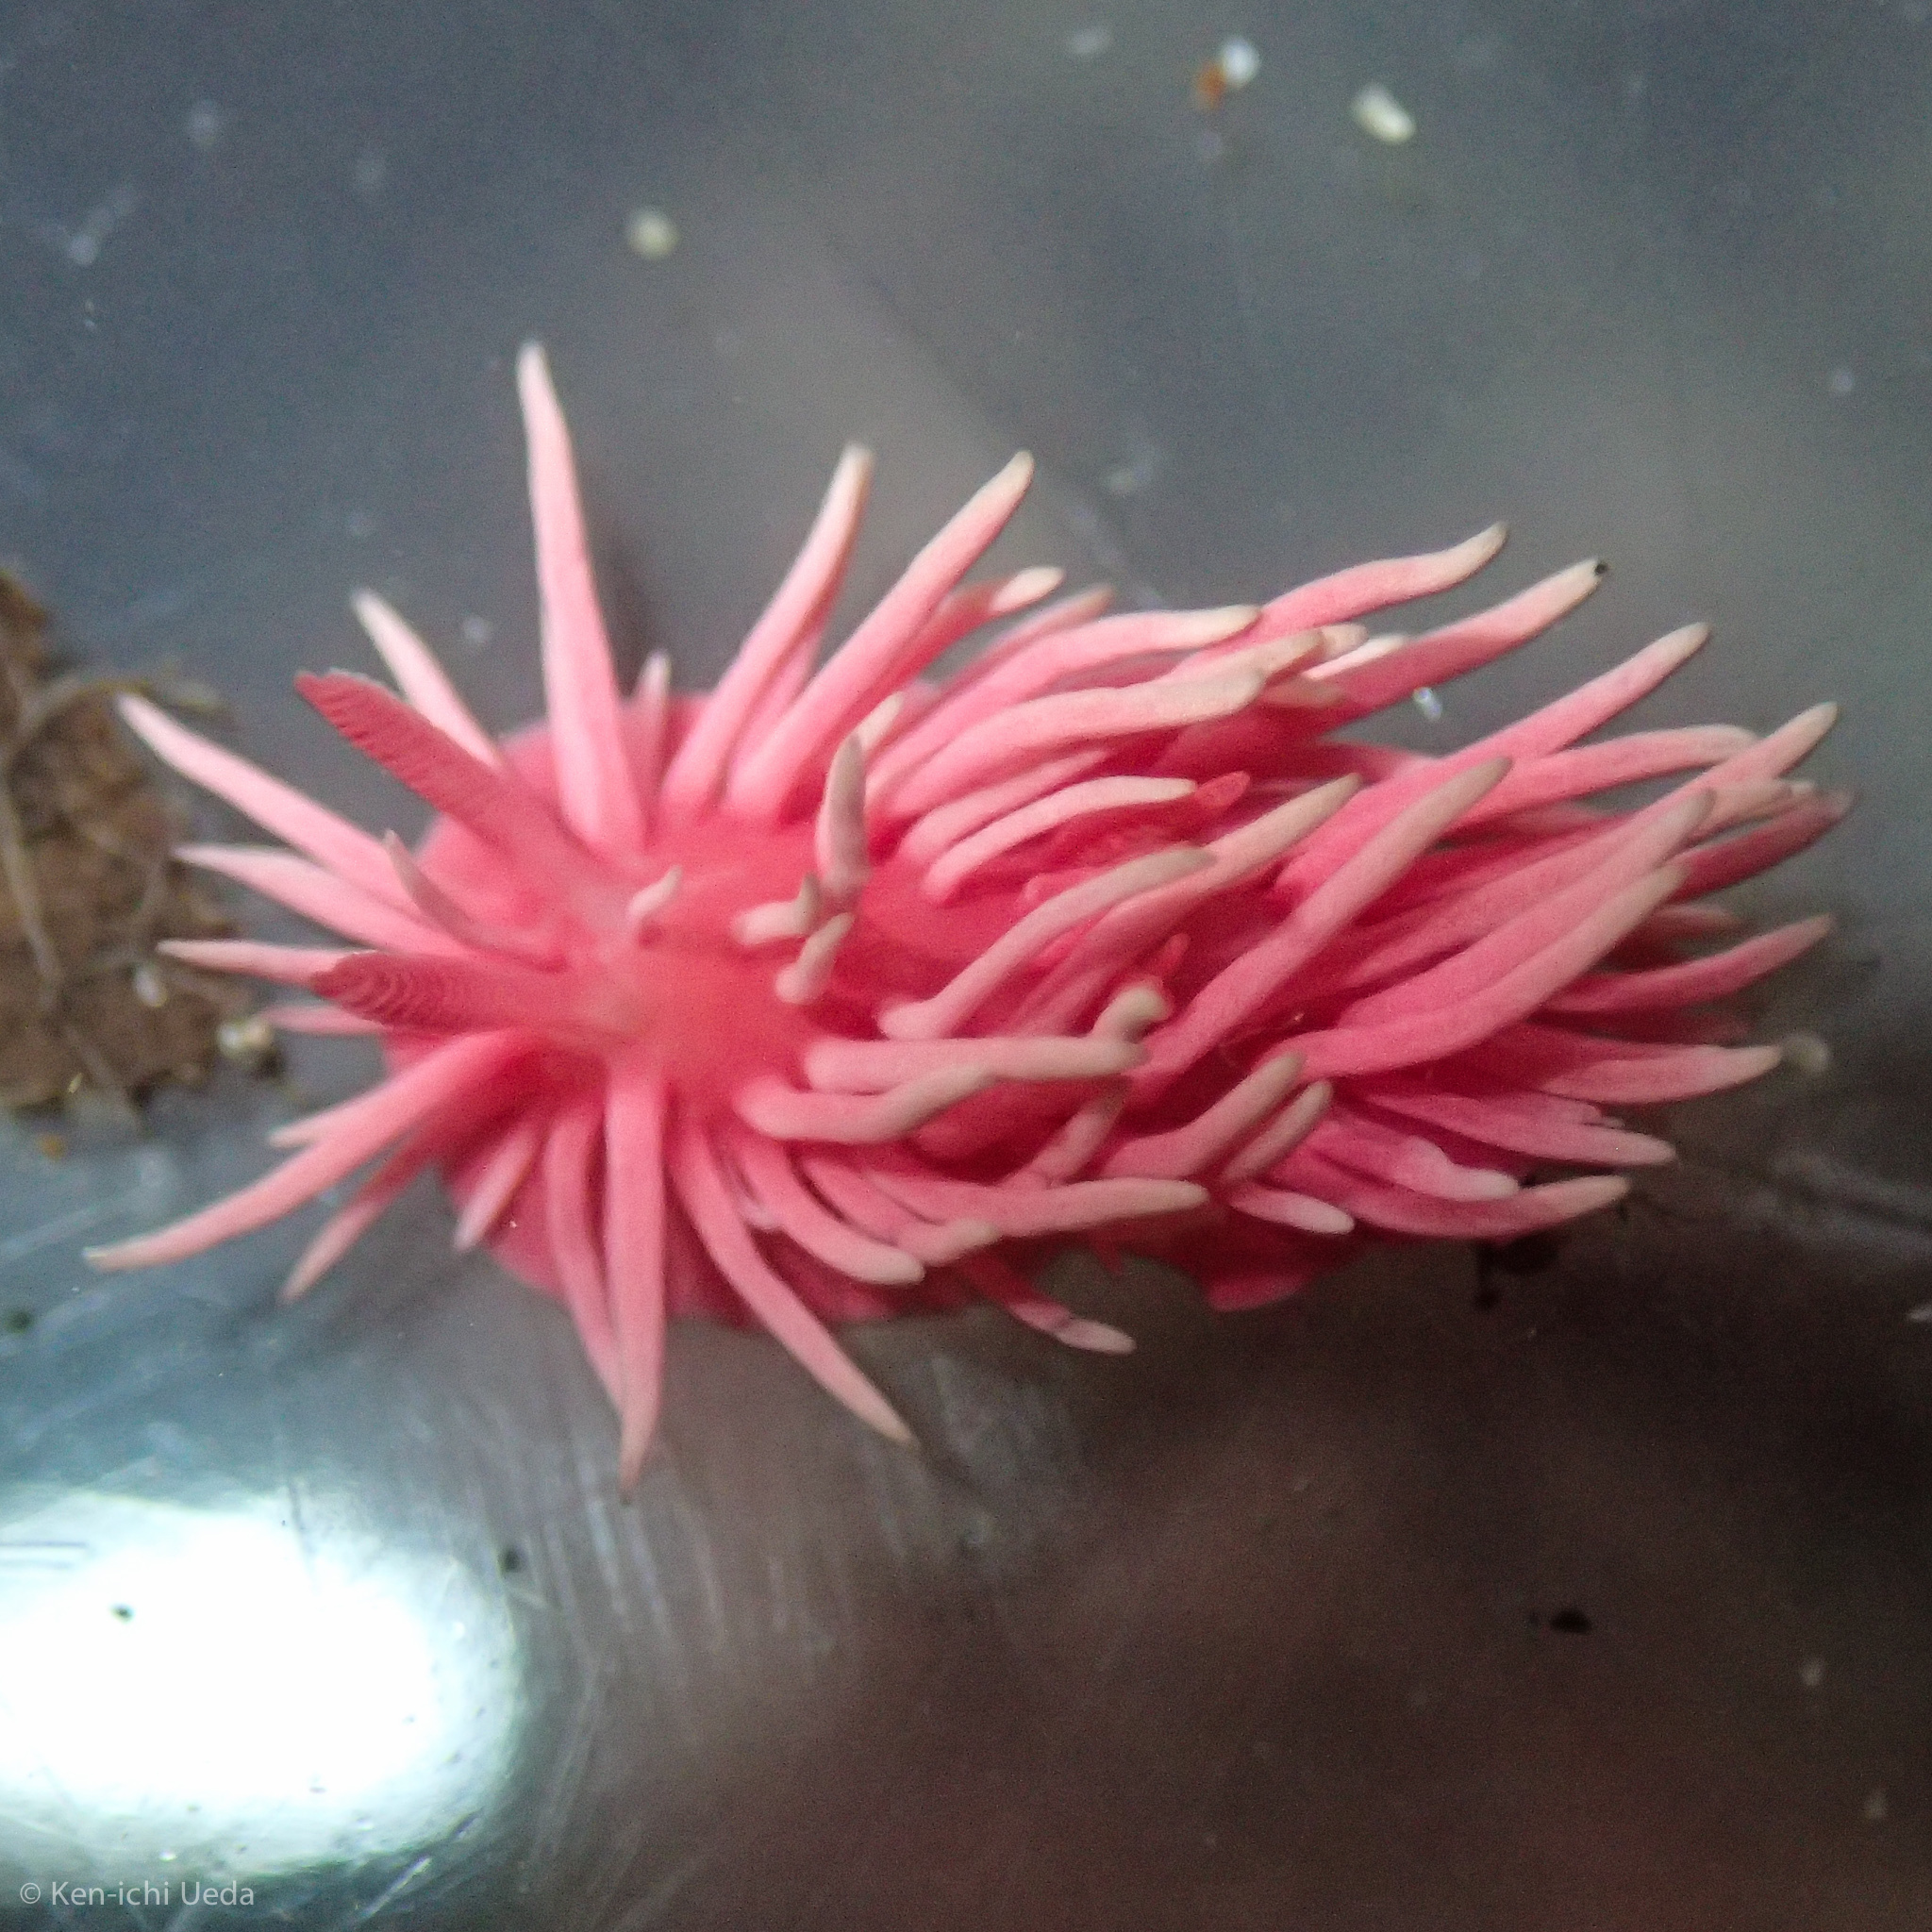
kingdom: Animalia
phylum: Mollusca
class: Gastropoda
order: Nudibranchia
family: Goniodorididae
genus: Okenia
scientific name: Okenia
